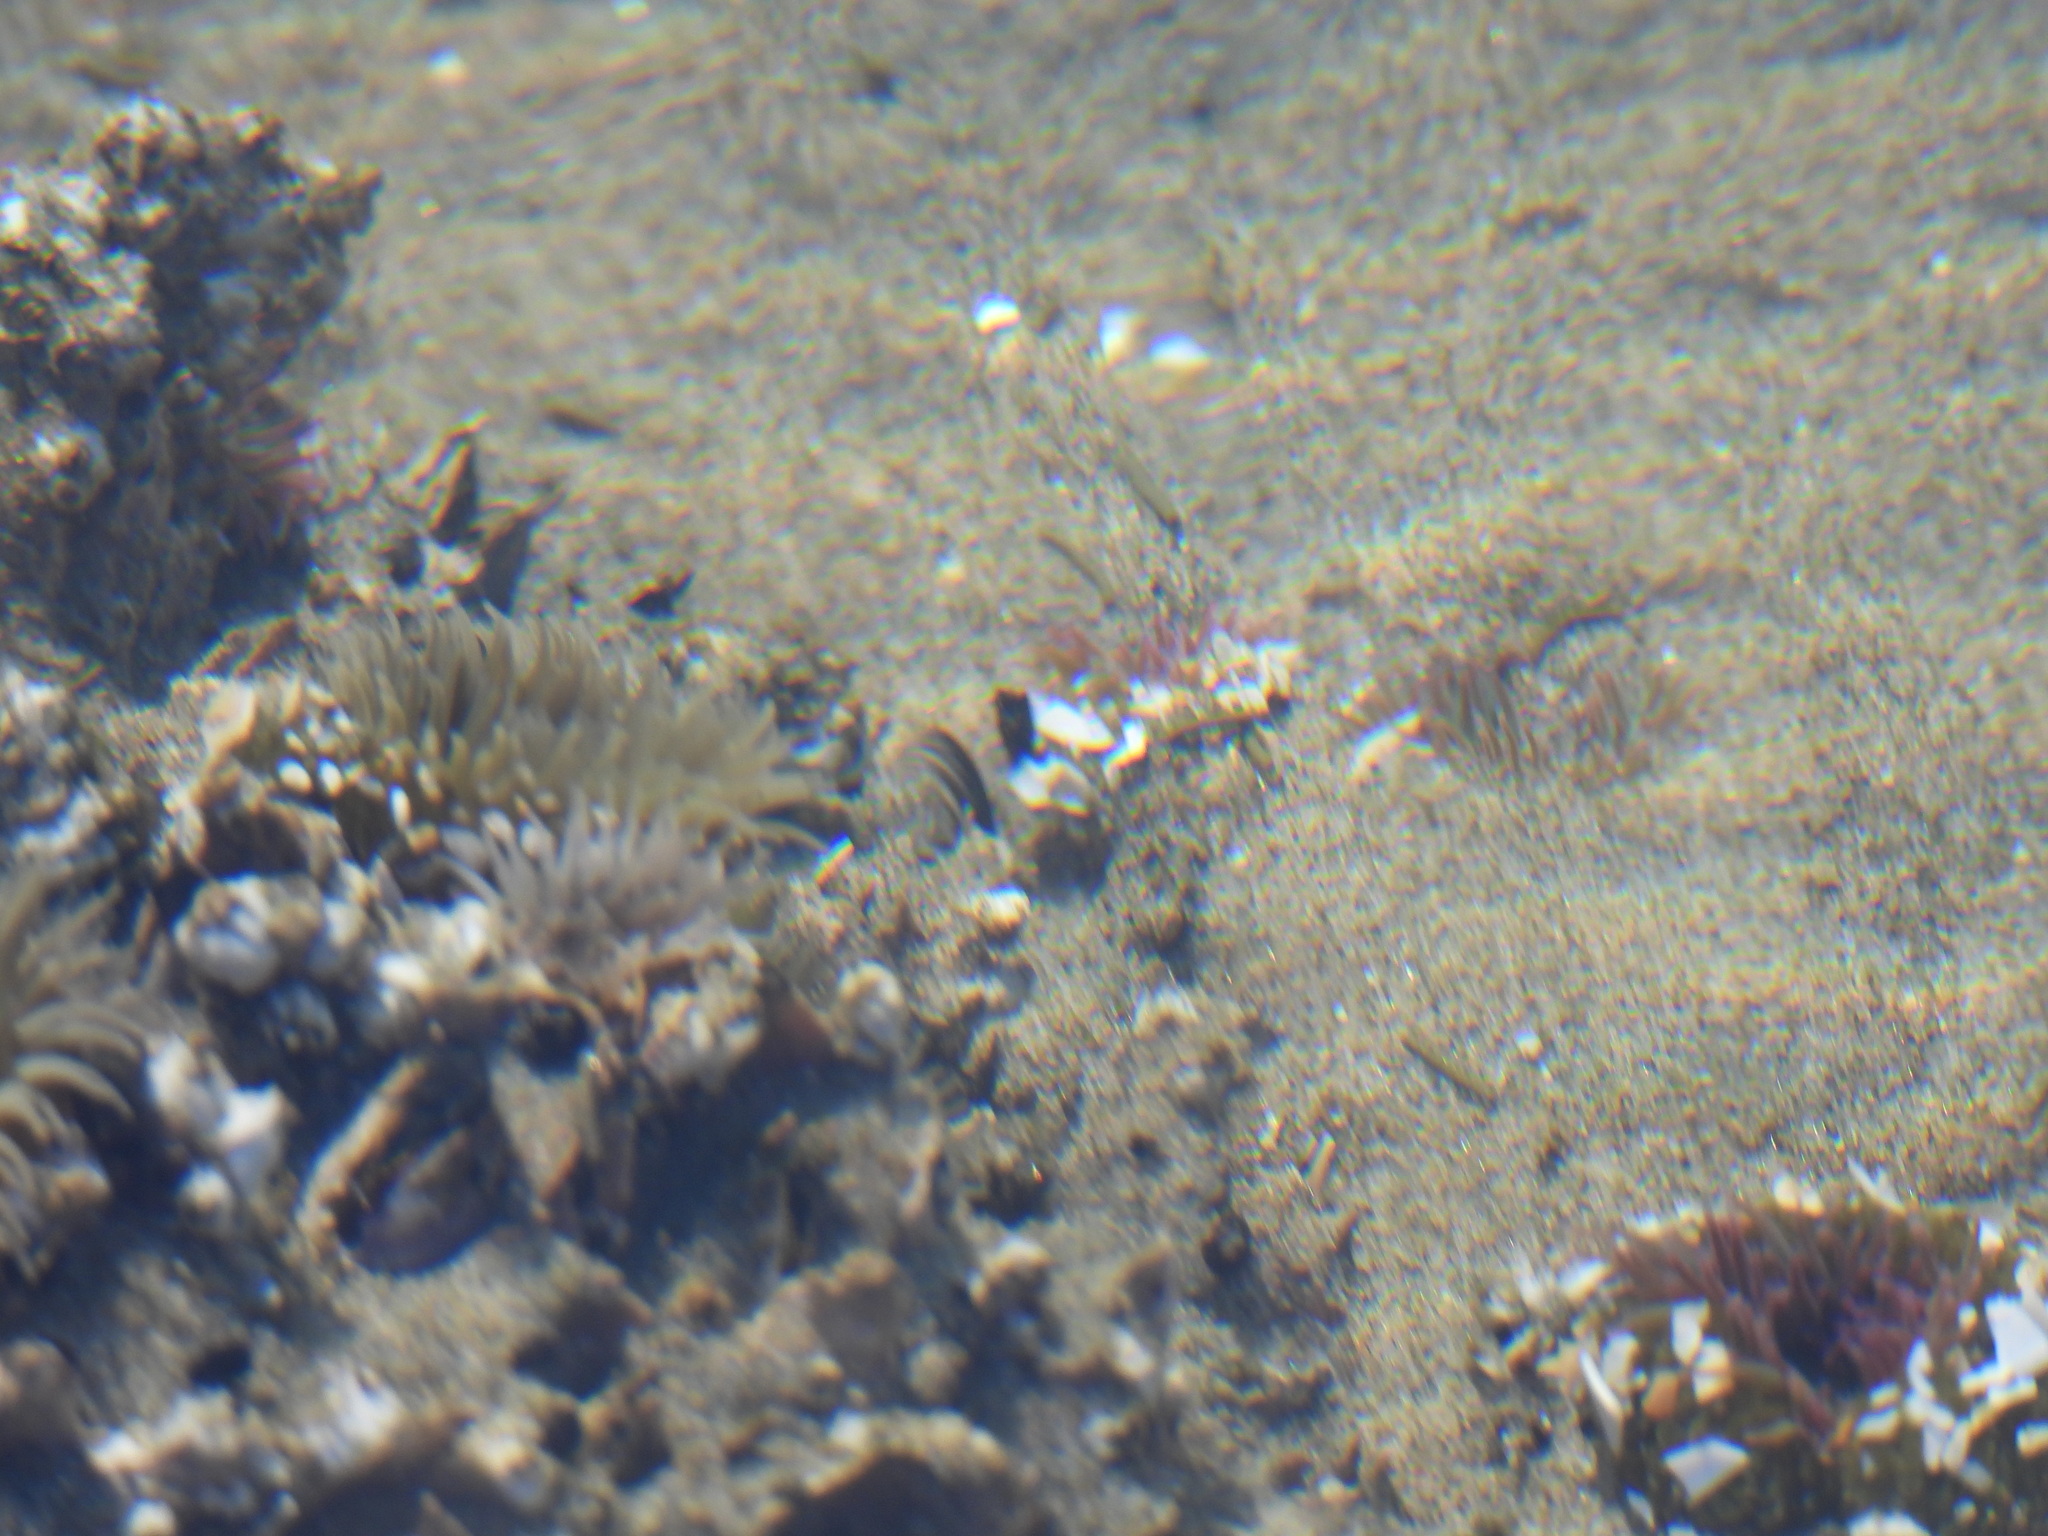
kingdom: Animalia
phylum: Cnidaria
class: Anthozoa
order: Actiniaria
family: Actiniidae
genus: Anthopleura
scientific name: Anthopleura elegantissima
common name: Clonal anemone
